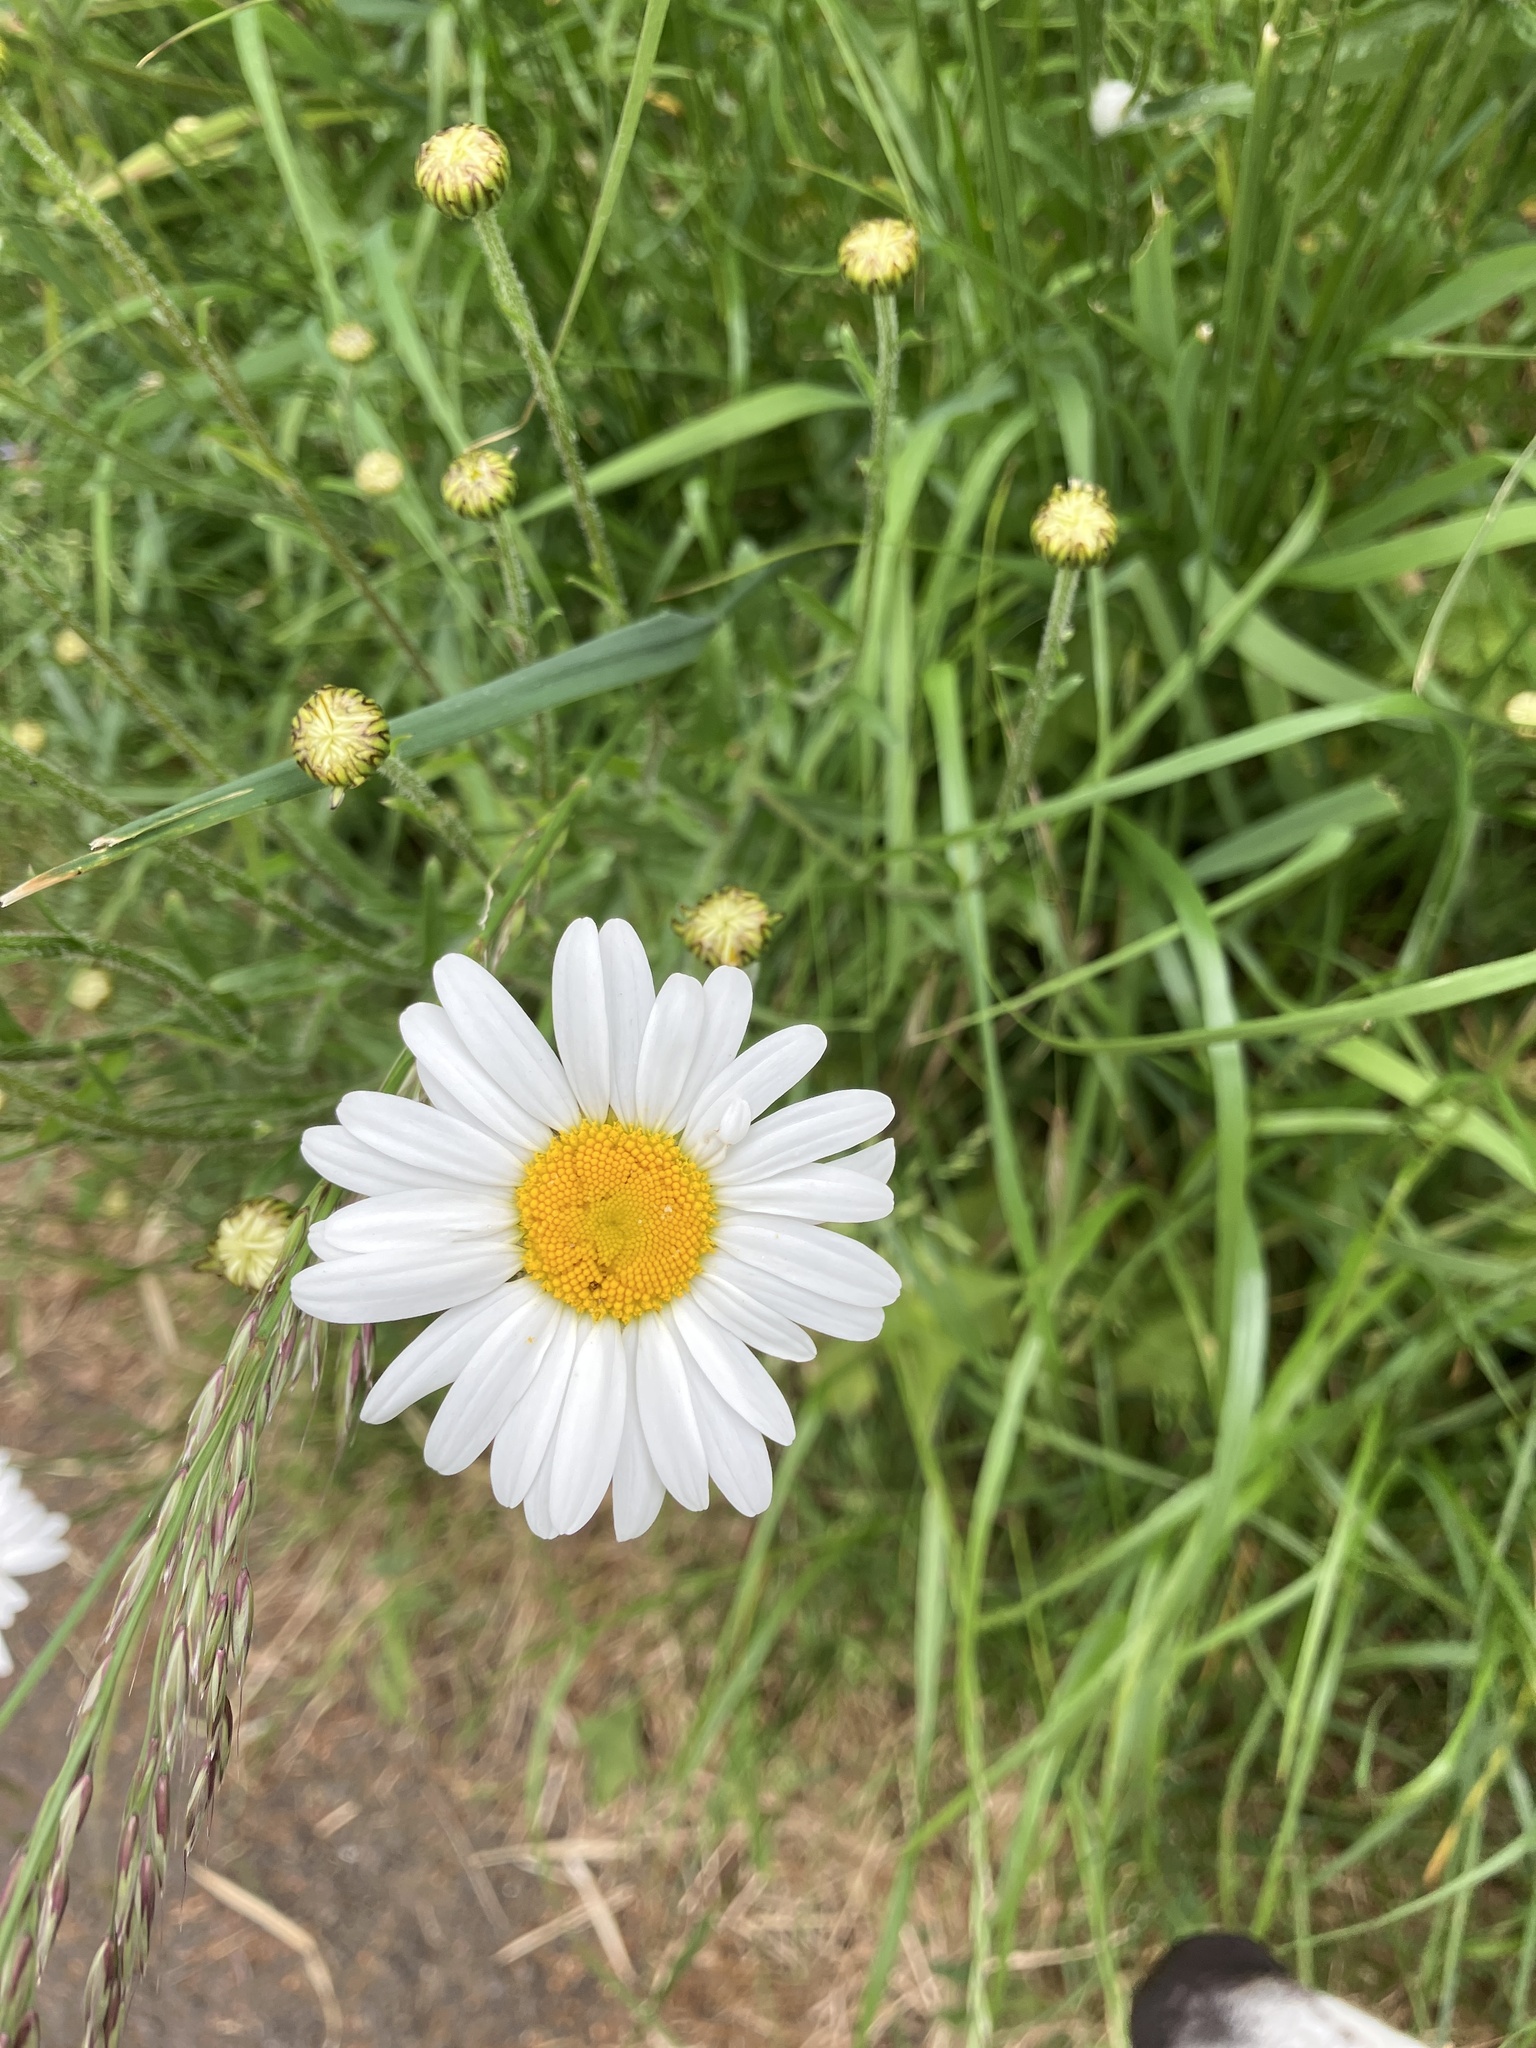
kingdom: Plantae
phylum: Tracheophyta
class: Magnoliopsida
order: Asterales
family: Asteraceae
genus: Leucanthemum
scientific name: Leucanthemum vulgare
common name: Oxeye daisy
